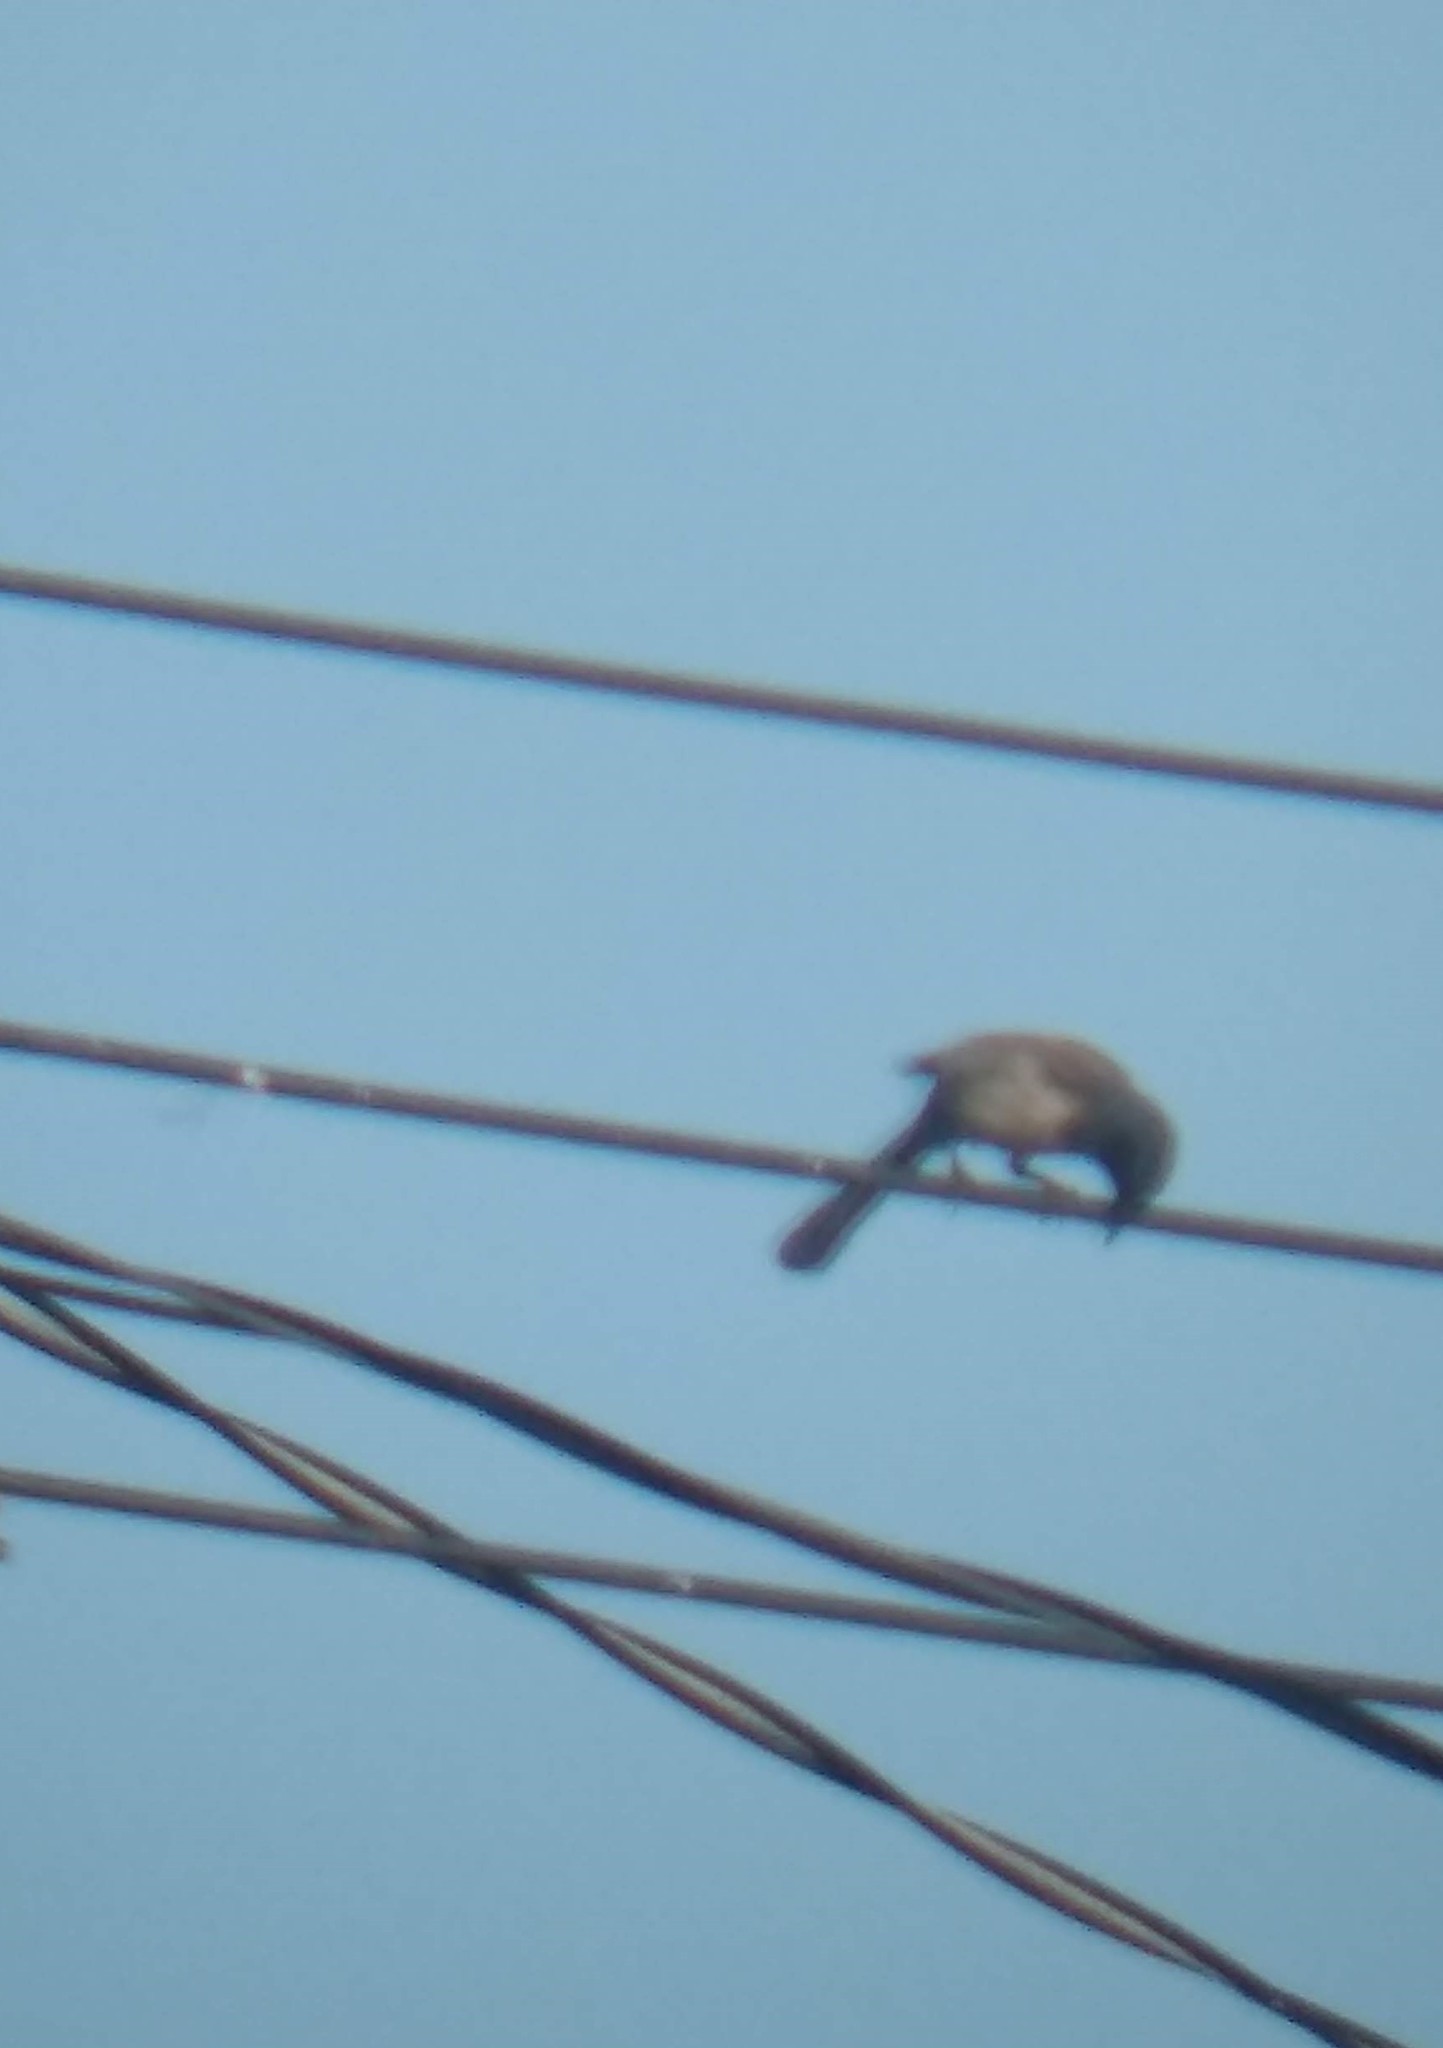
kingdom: Animalia
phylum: Chordata
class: Aves
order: Passeriformes
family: Corvidae
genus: Aphelocoma
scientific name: Aphelocoma californica
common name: California scrub-jay
